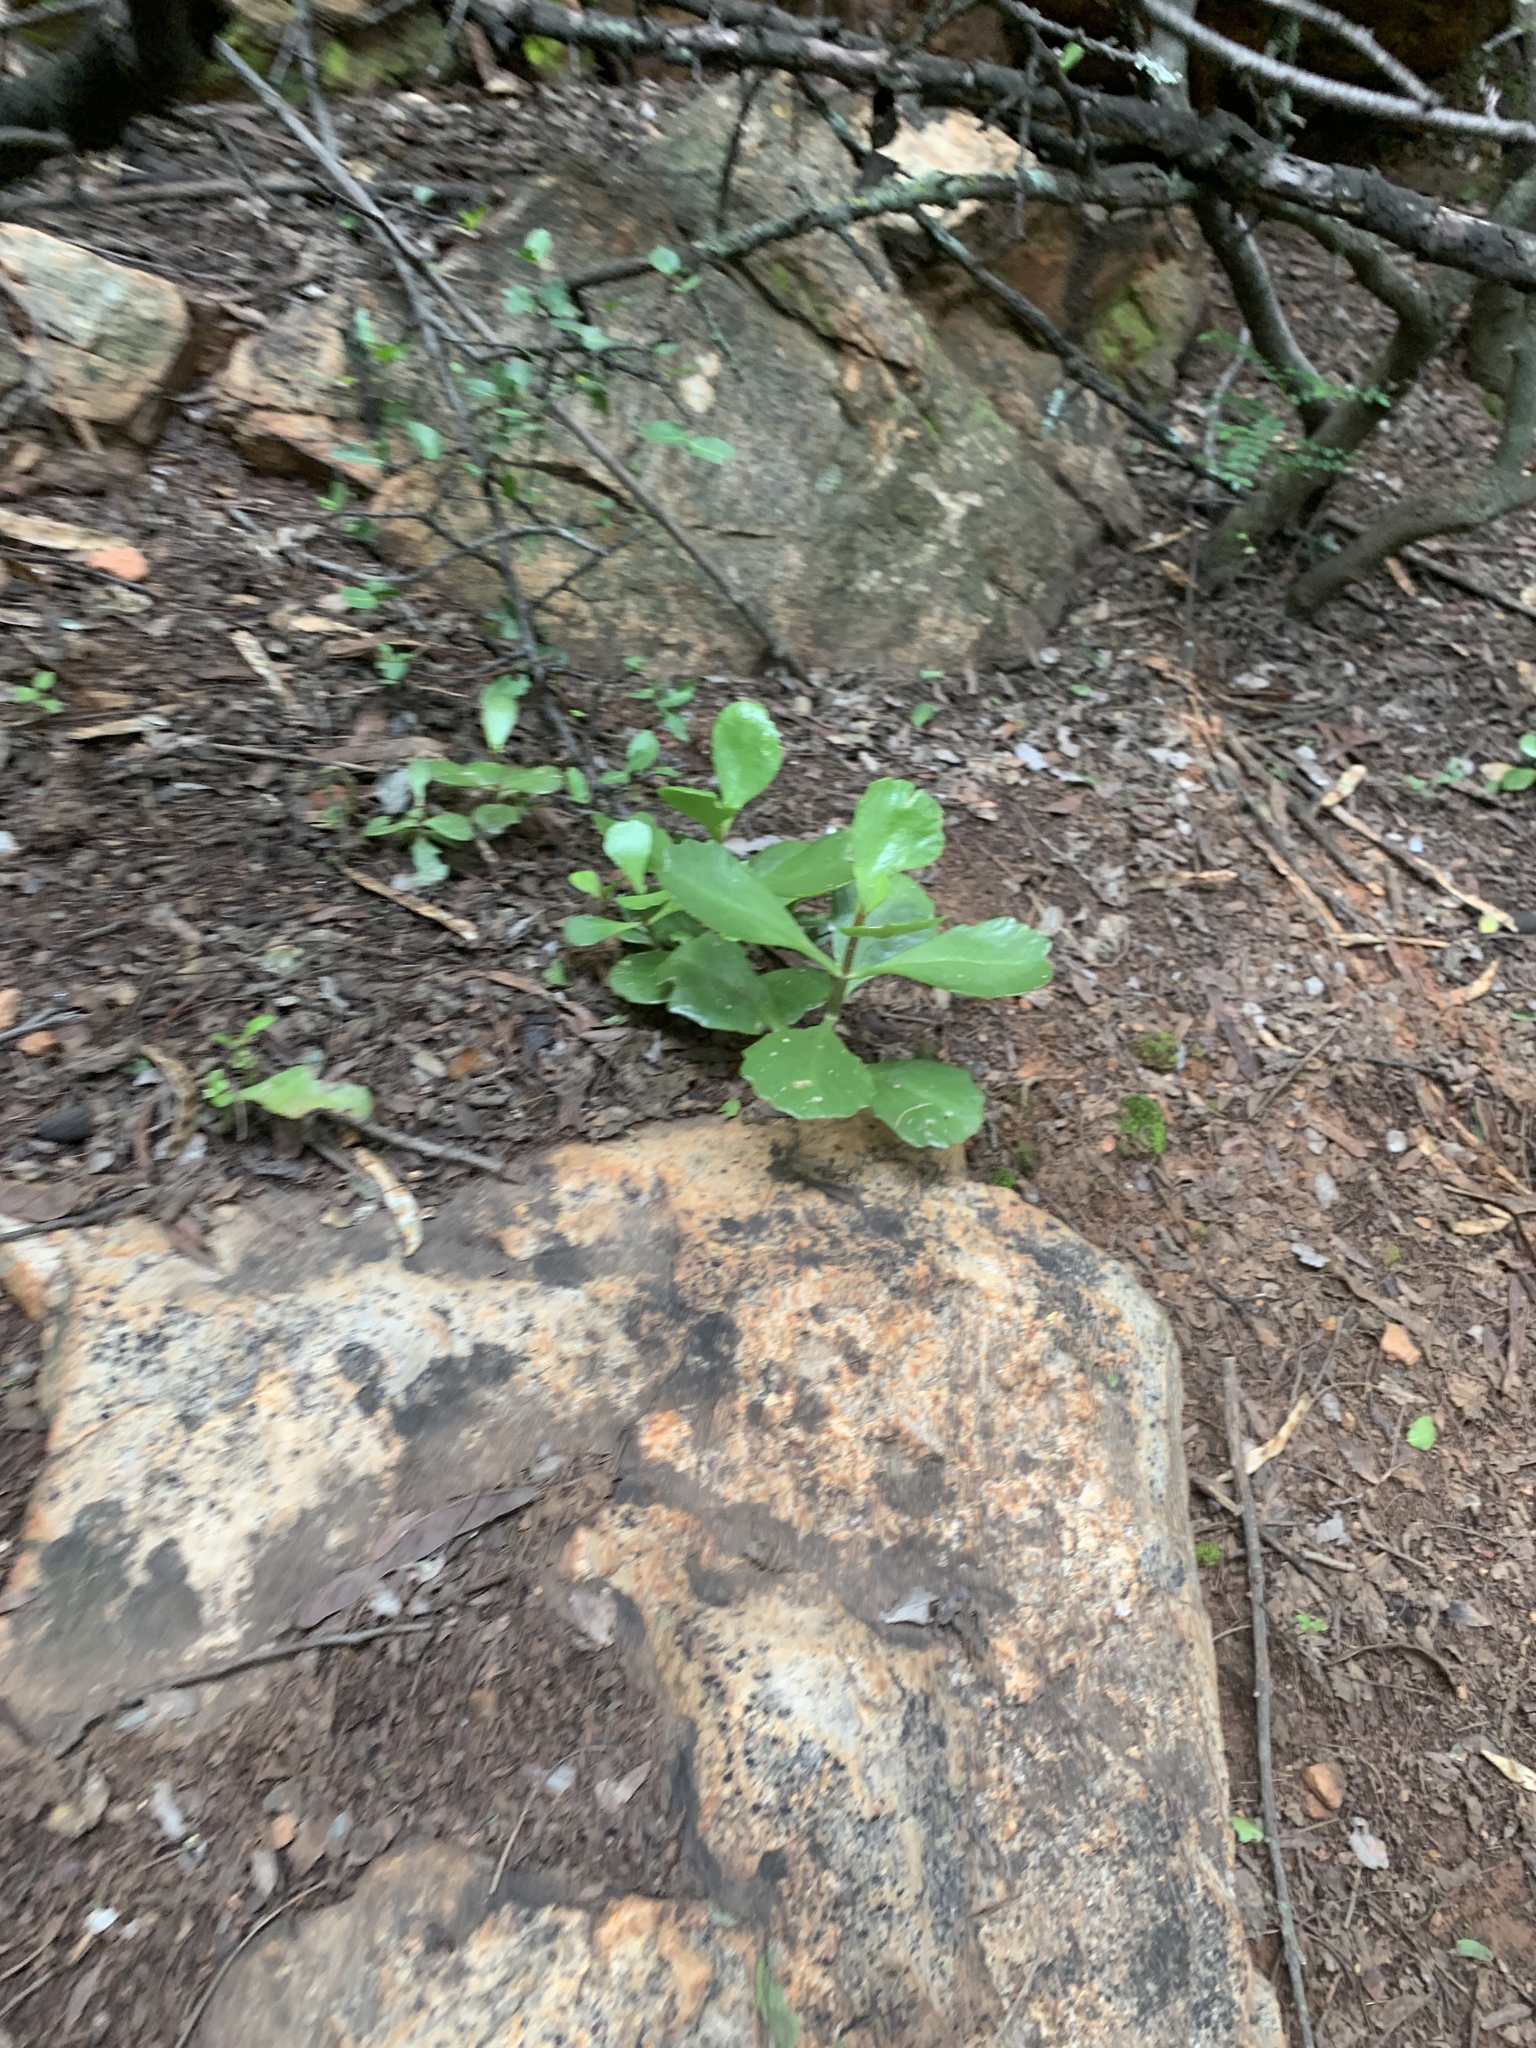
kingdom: Plantae
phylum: Tracheophyta
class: Magnoliopsida
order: Saxifragales
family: Crassulaceae
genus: Kalanchoe
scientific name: Kalanchoe rotundifolia
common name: Common kalanchoe
